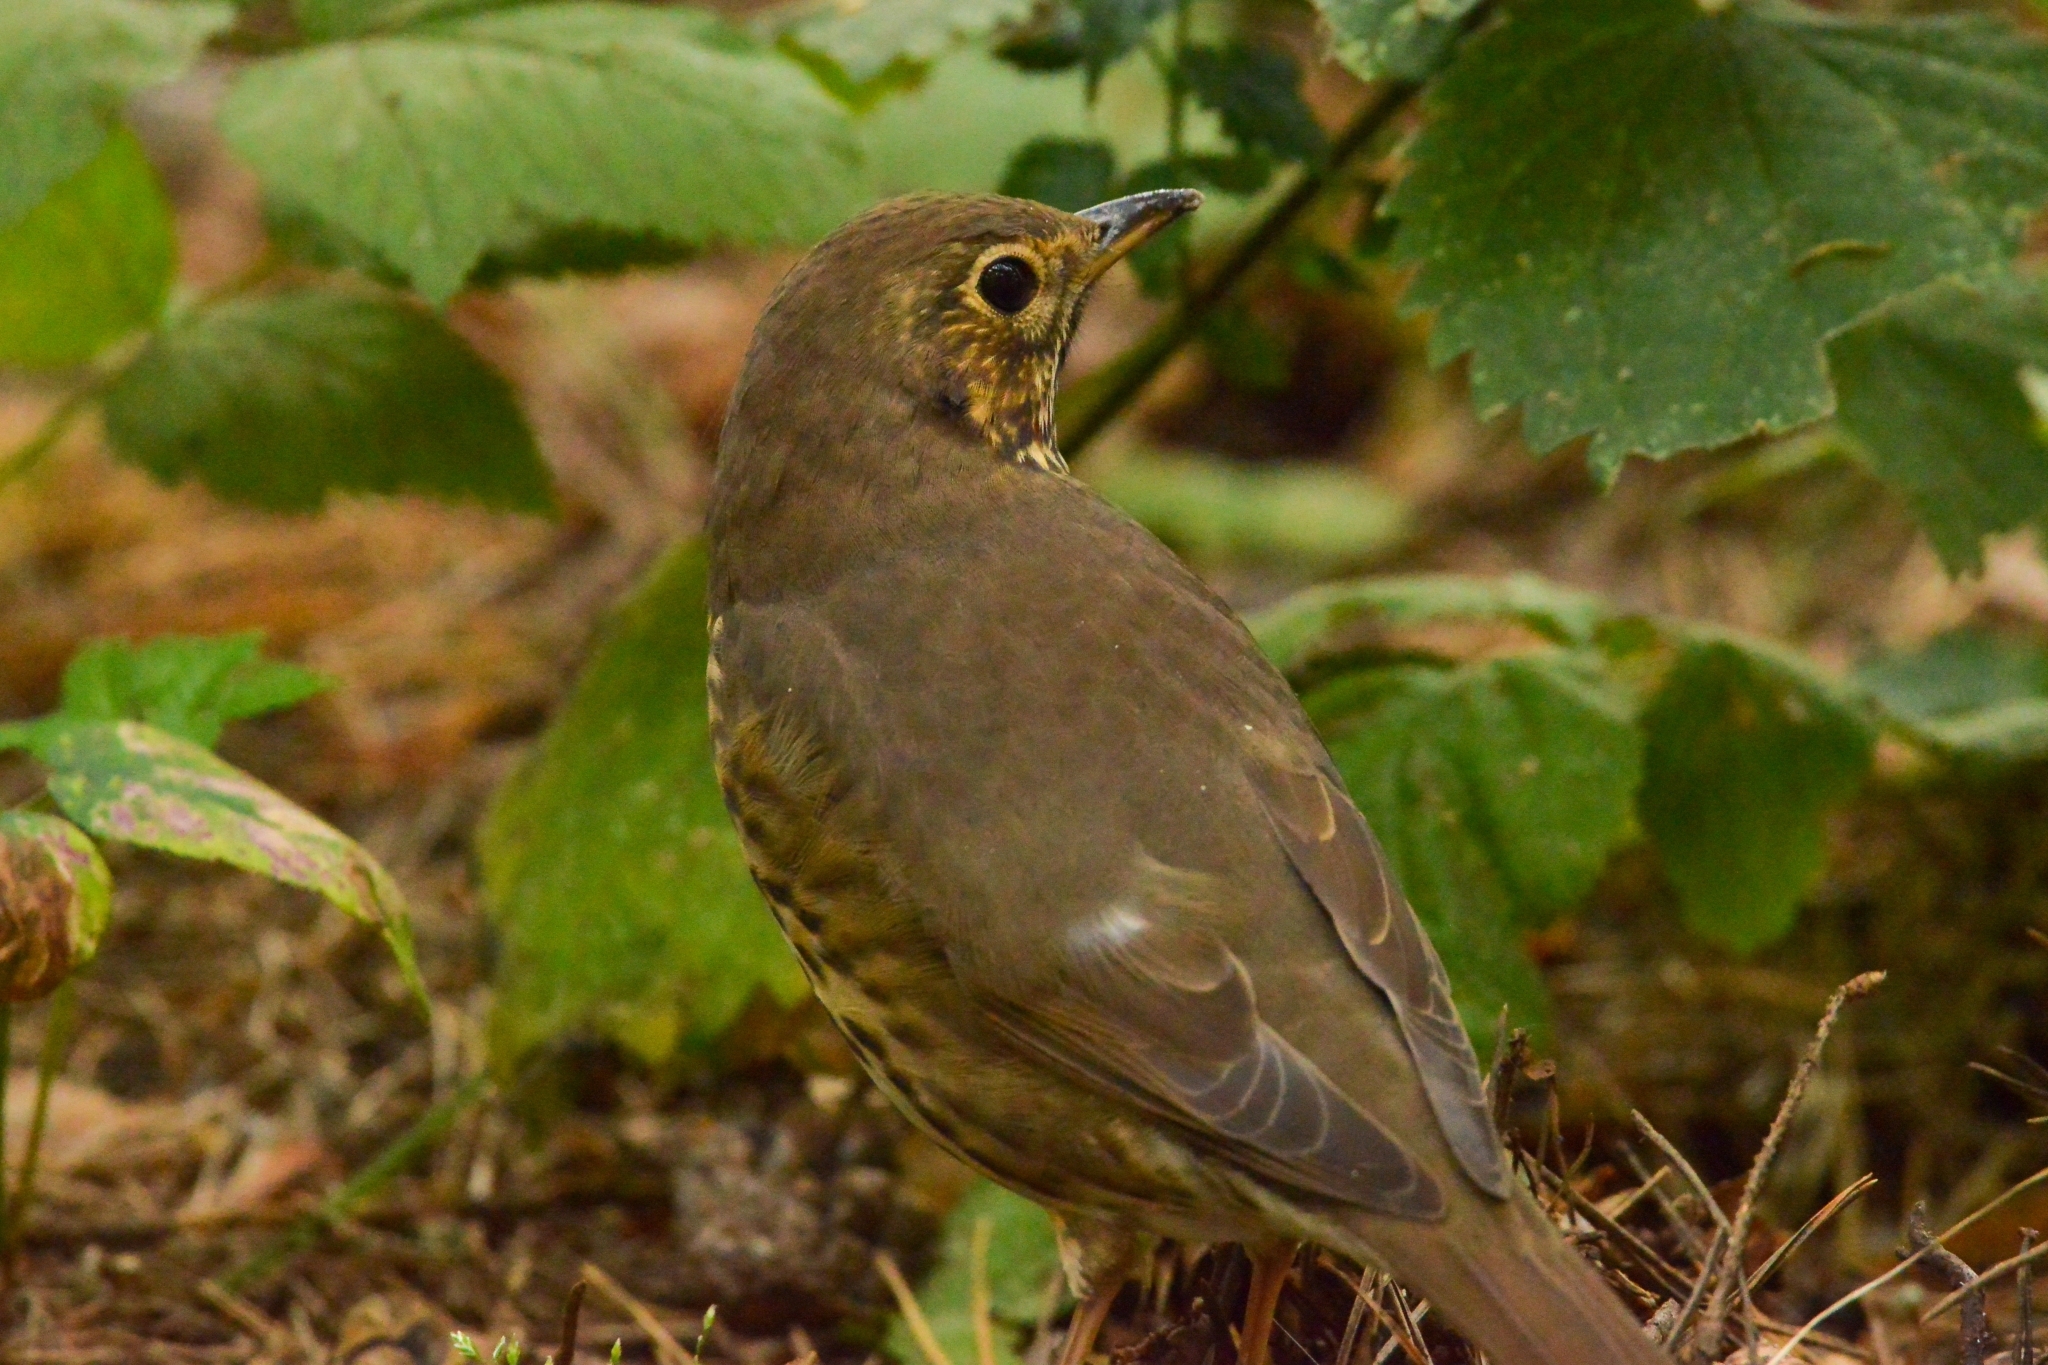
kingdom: Animalia
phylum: Chordata
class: Aves
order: Passeriformes
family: Turdidae
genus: Turdus
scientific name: Turdus philomelos
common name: Song thrush
